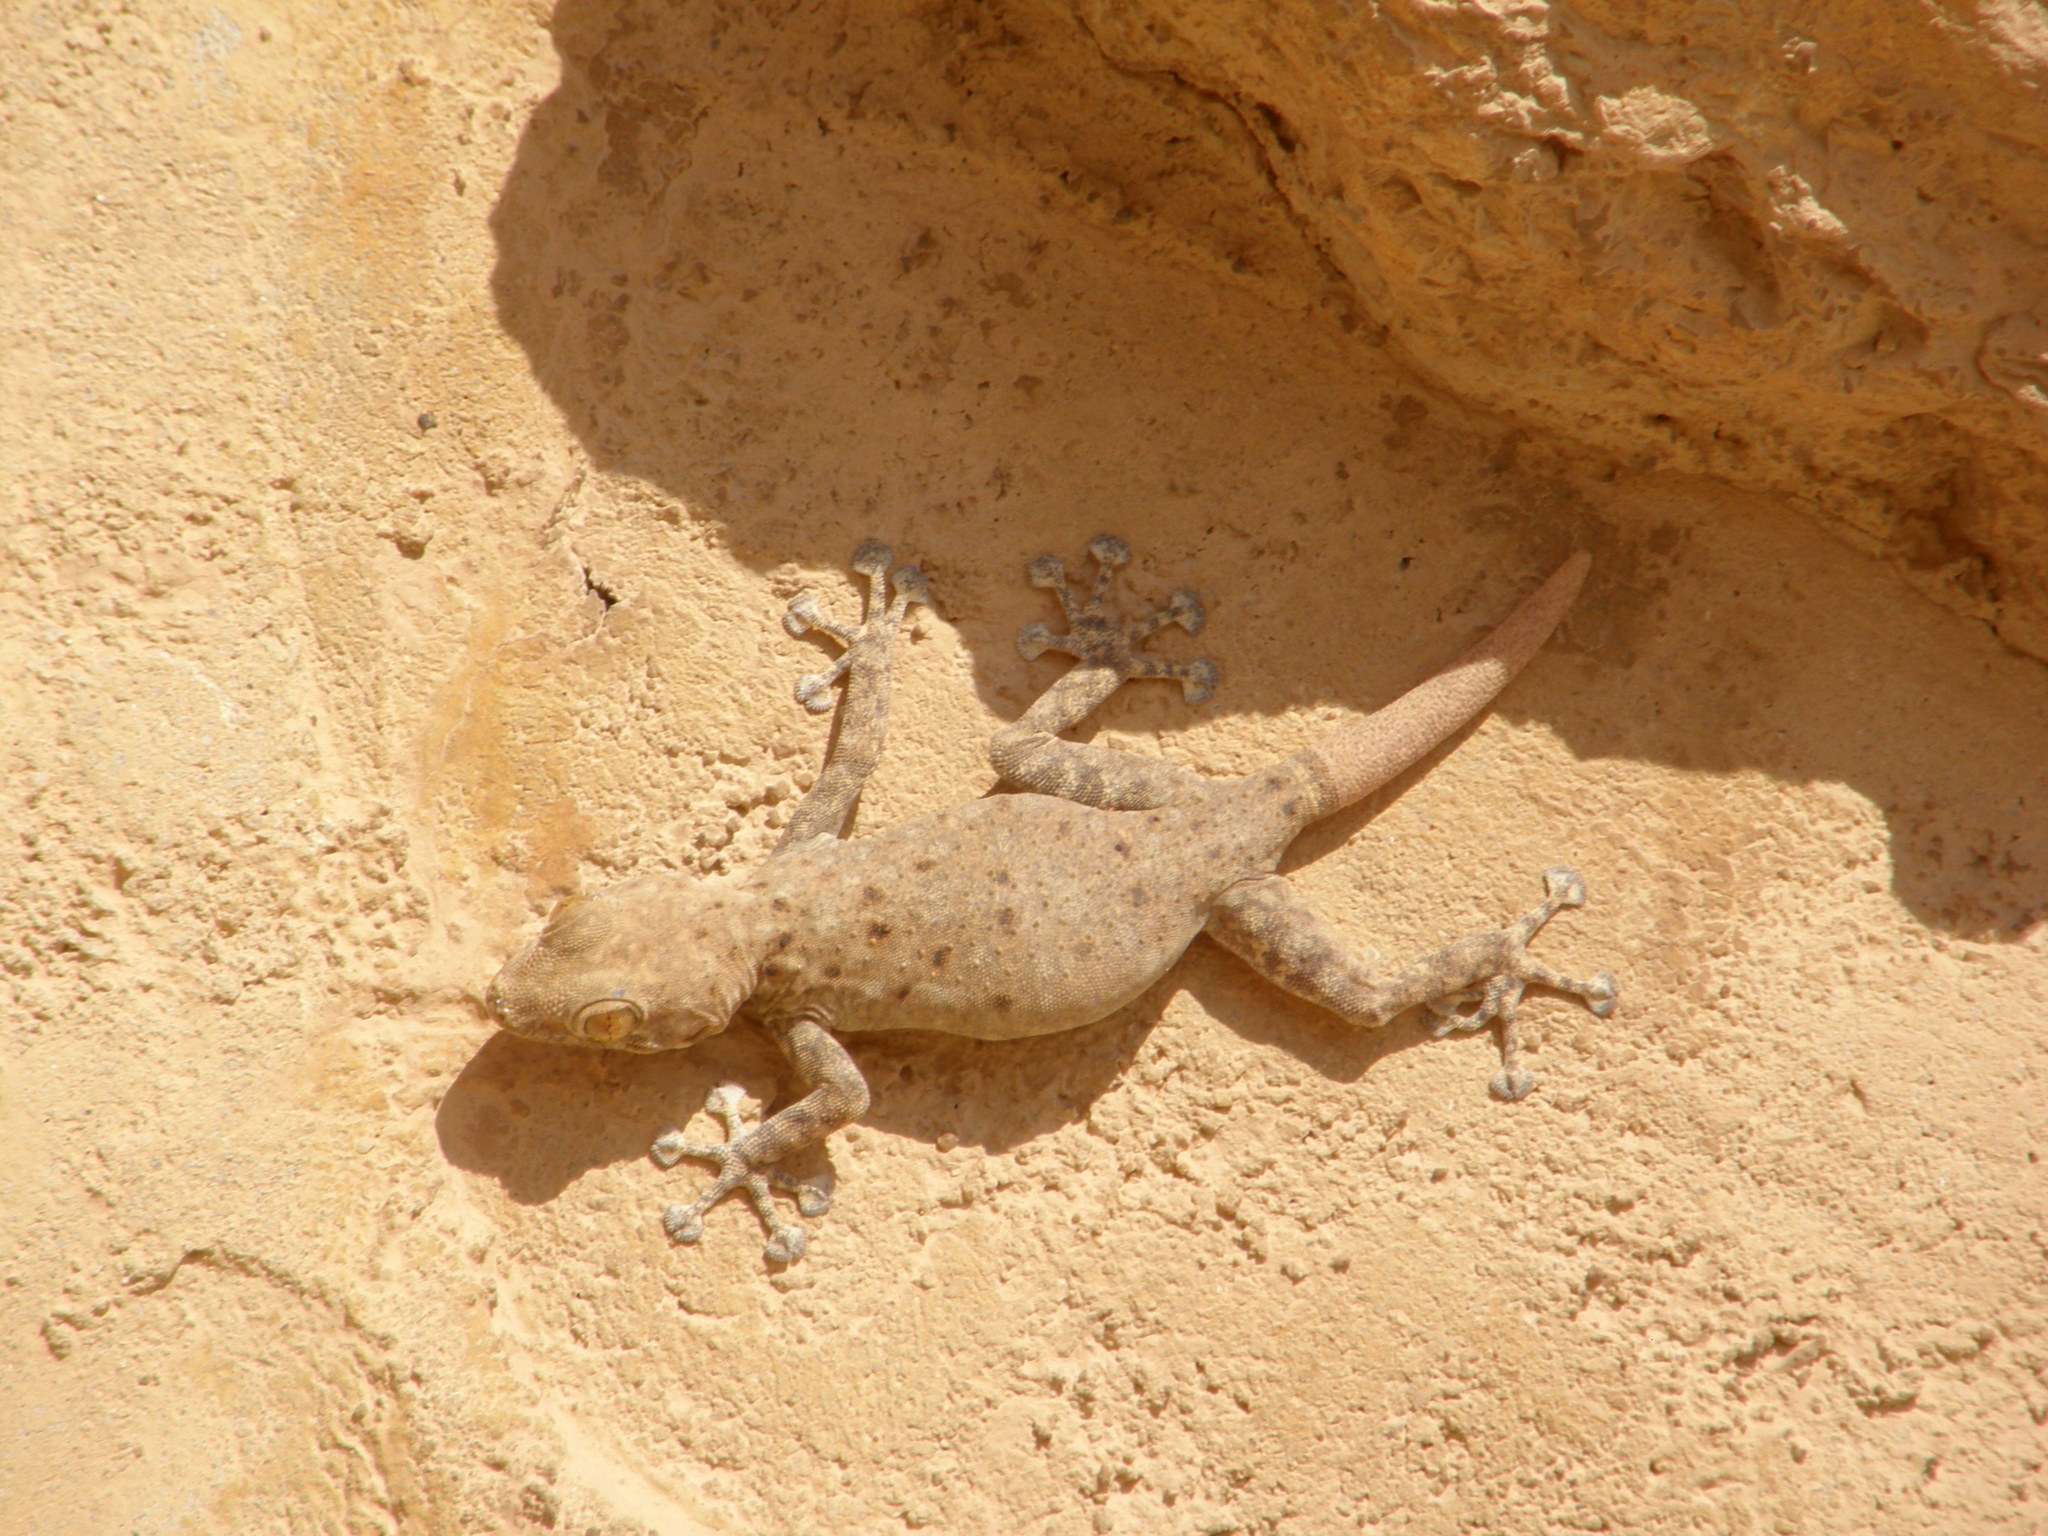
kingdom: Animalia
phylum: Chordata
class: Squamata
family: Phyllodactylidae
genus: Ptyodactylus
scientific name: Ptyodactylus guttatus
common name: Sinai fan-fingered gecko
